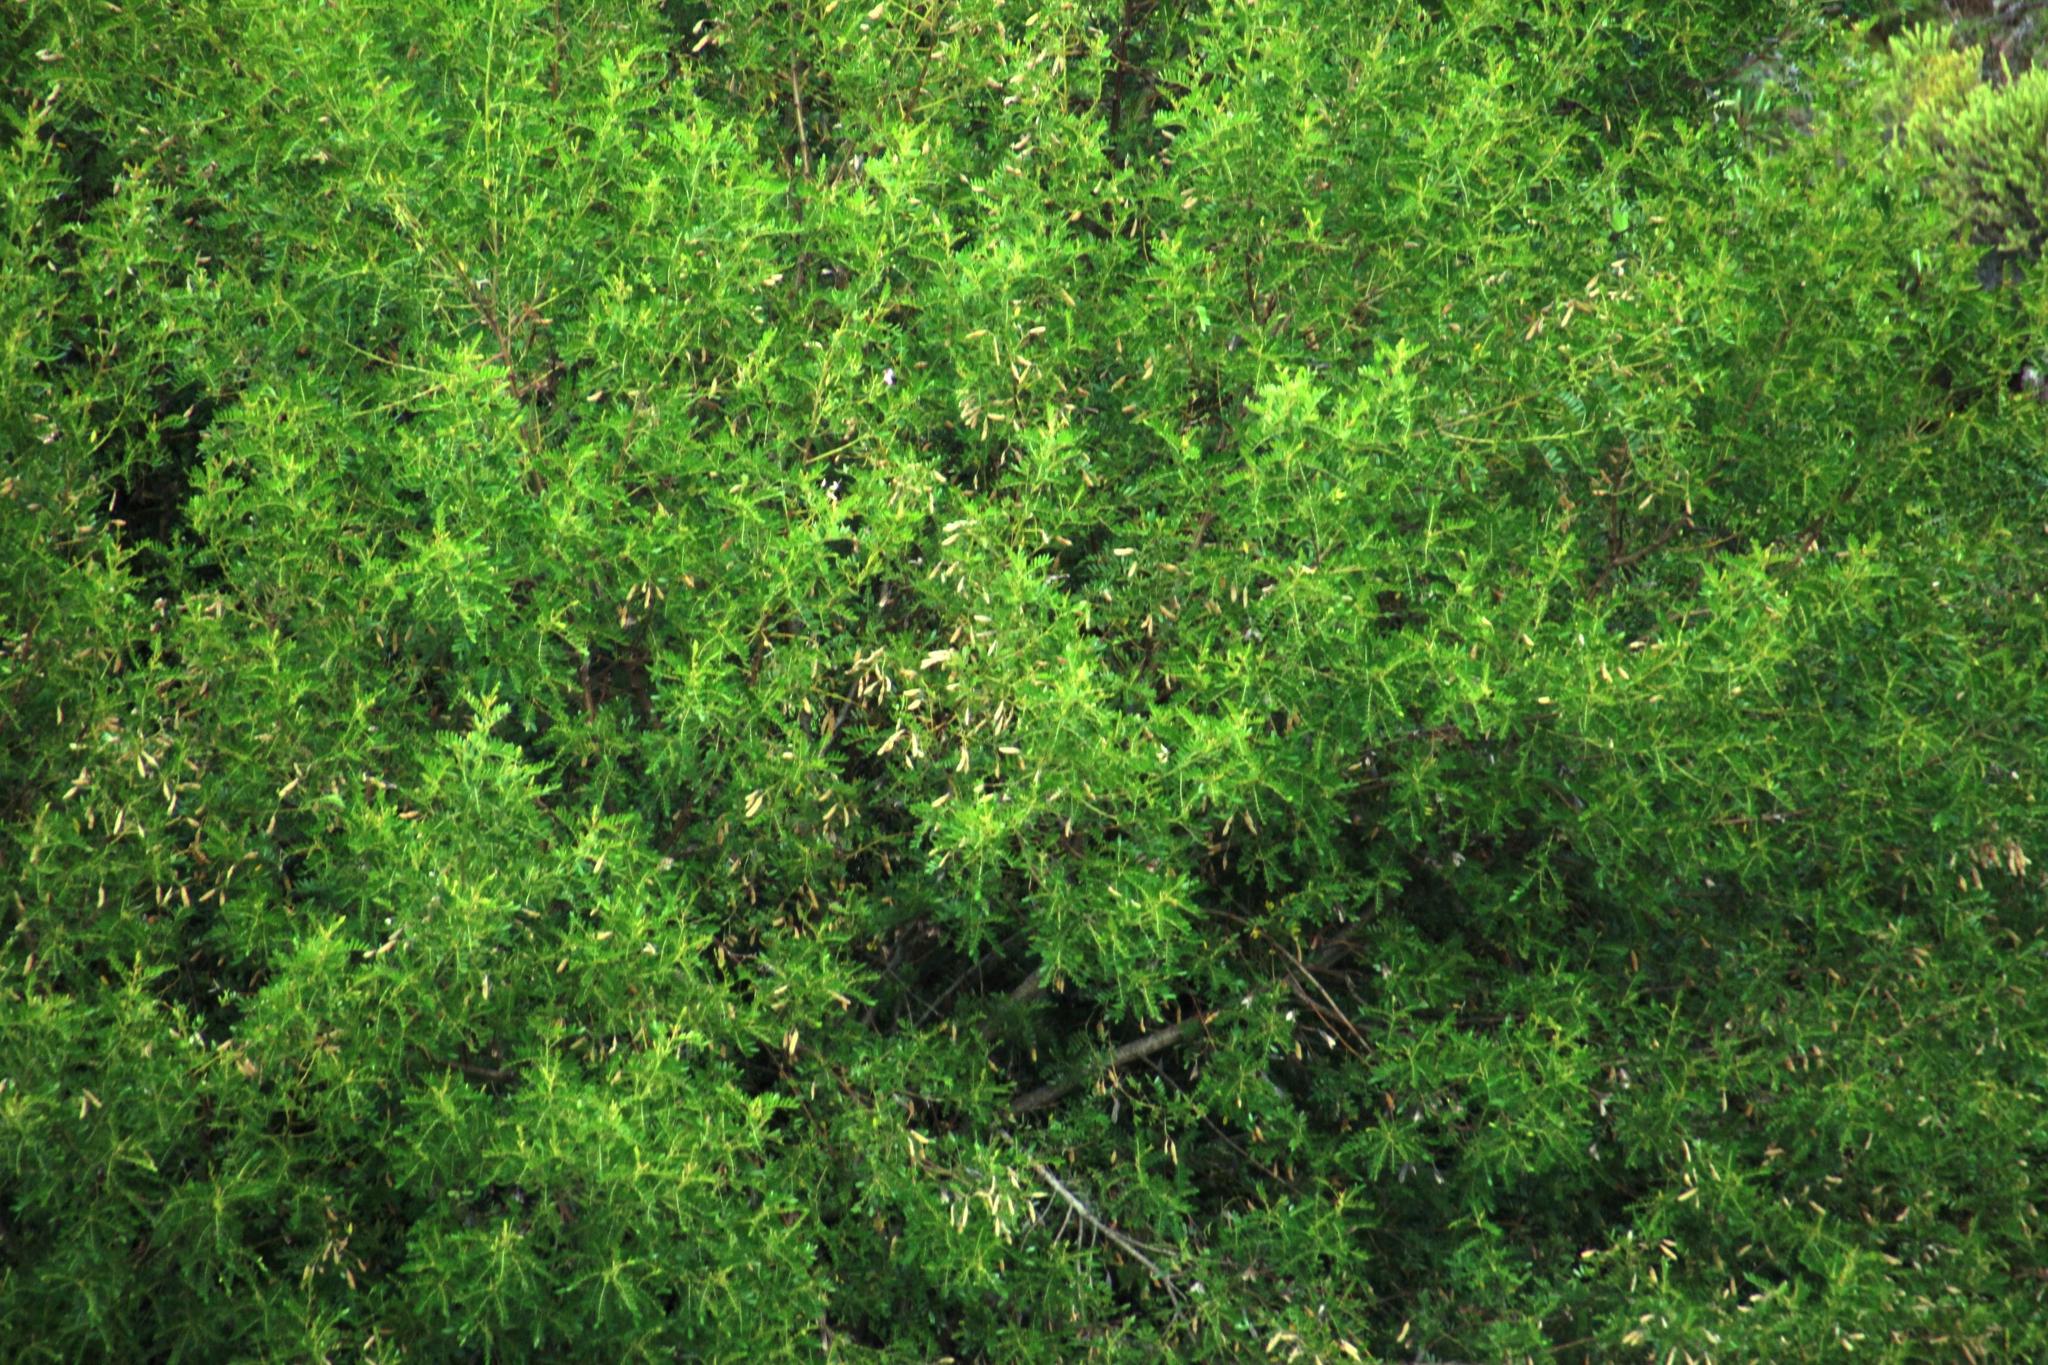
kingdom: Plantae
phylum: Tracheophyta
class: Magnoliopsida
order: Fabales
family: Fabaceae
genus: Virgilia
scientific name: Virgilia oroboides
